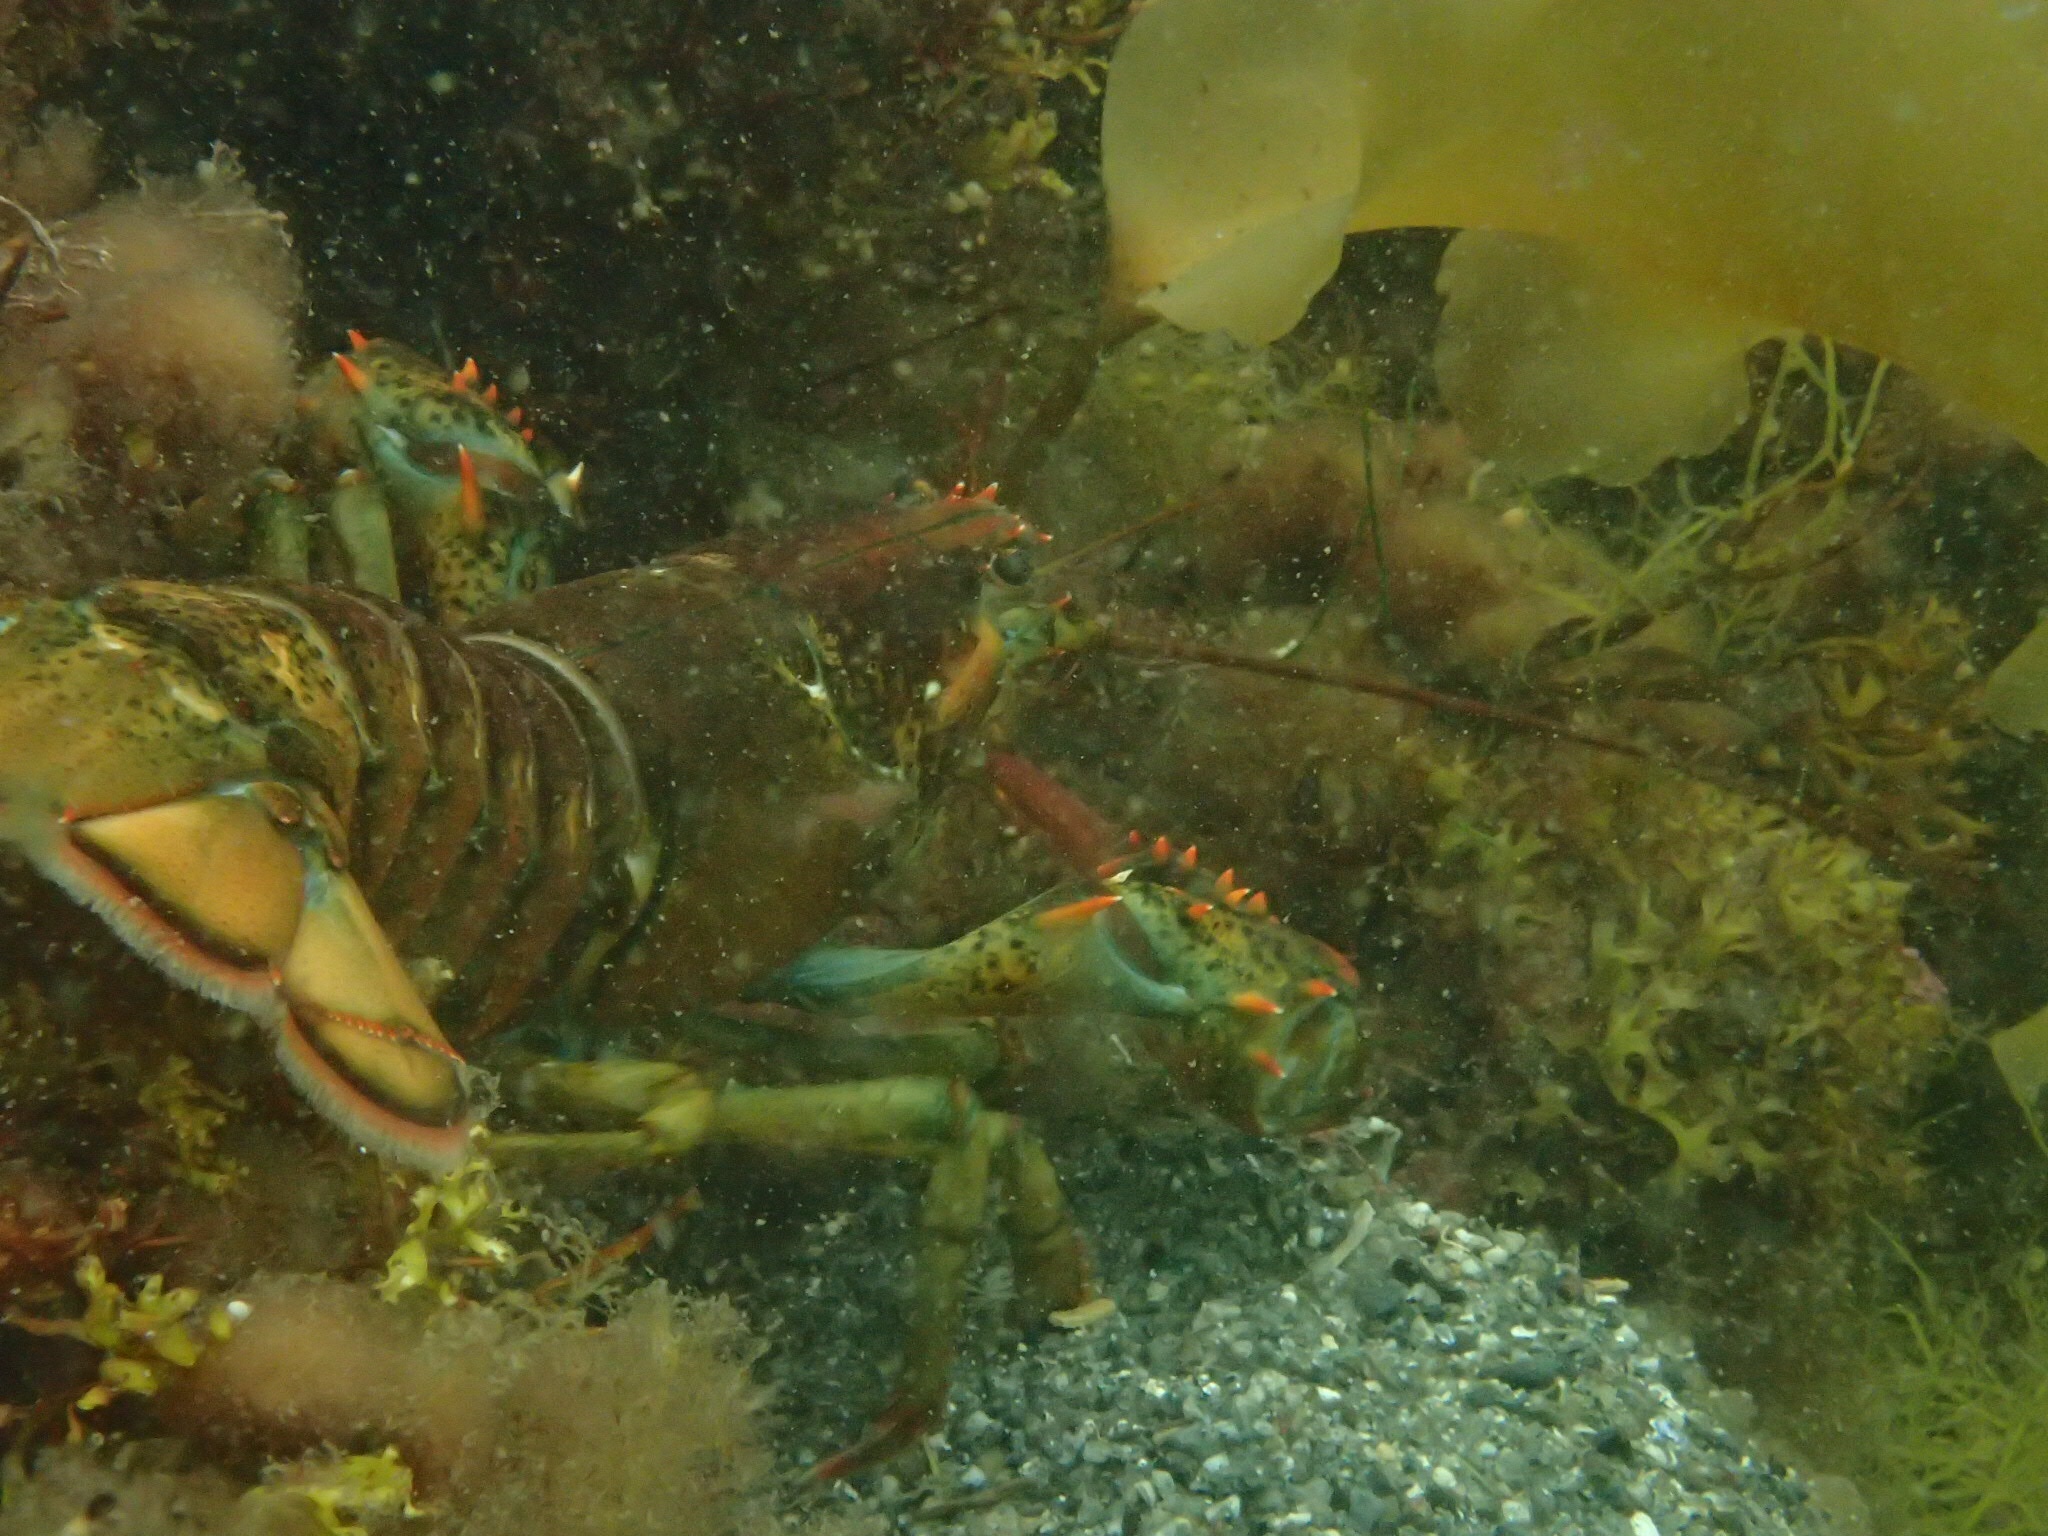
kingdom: Animalia
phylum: Arthropoda
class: Malacostraca
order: Decapoda
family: Nephropidae
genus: Homarus
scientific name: Homarus americanus
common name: American lobster
